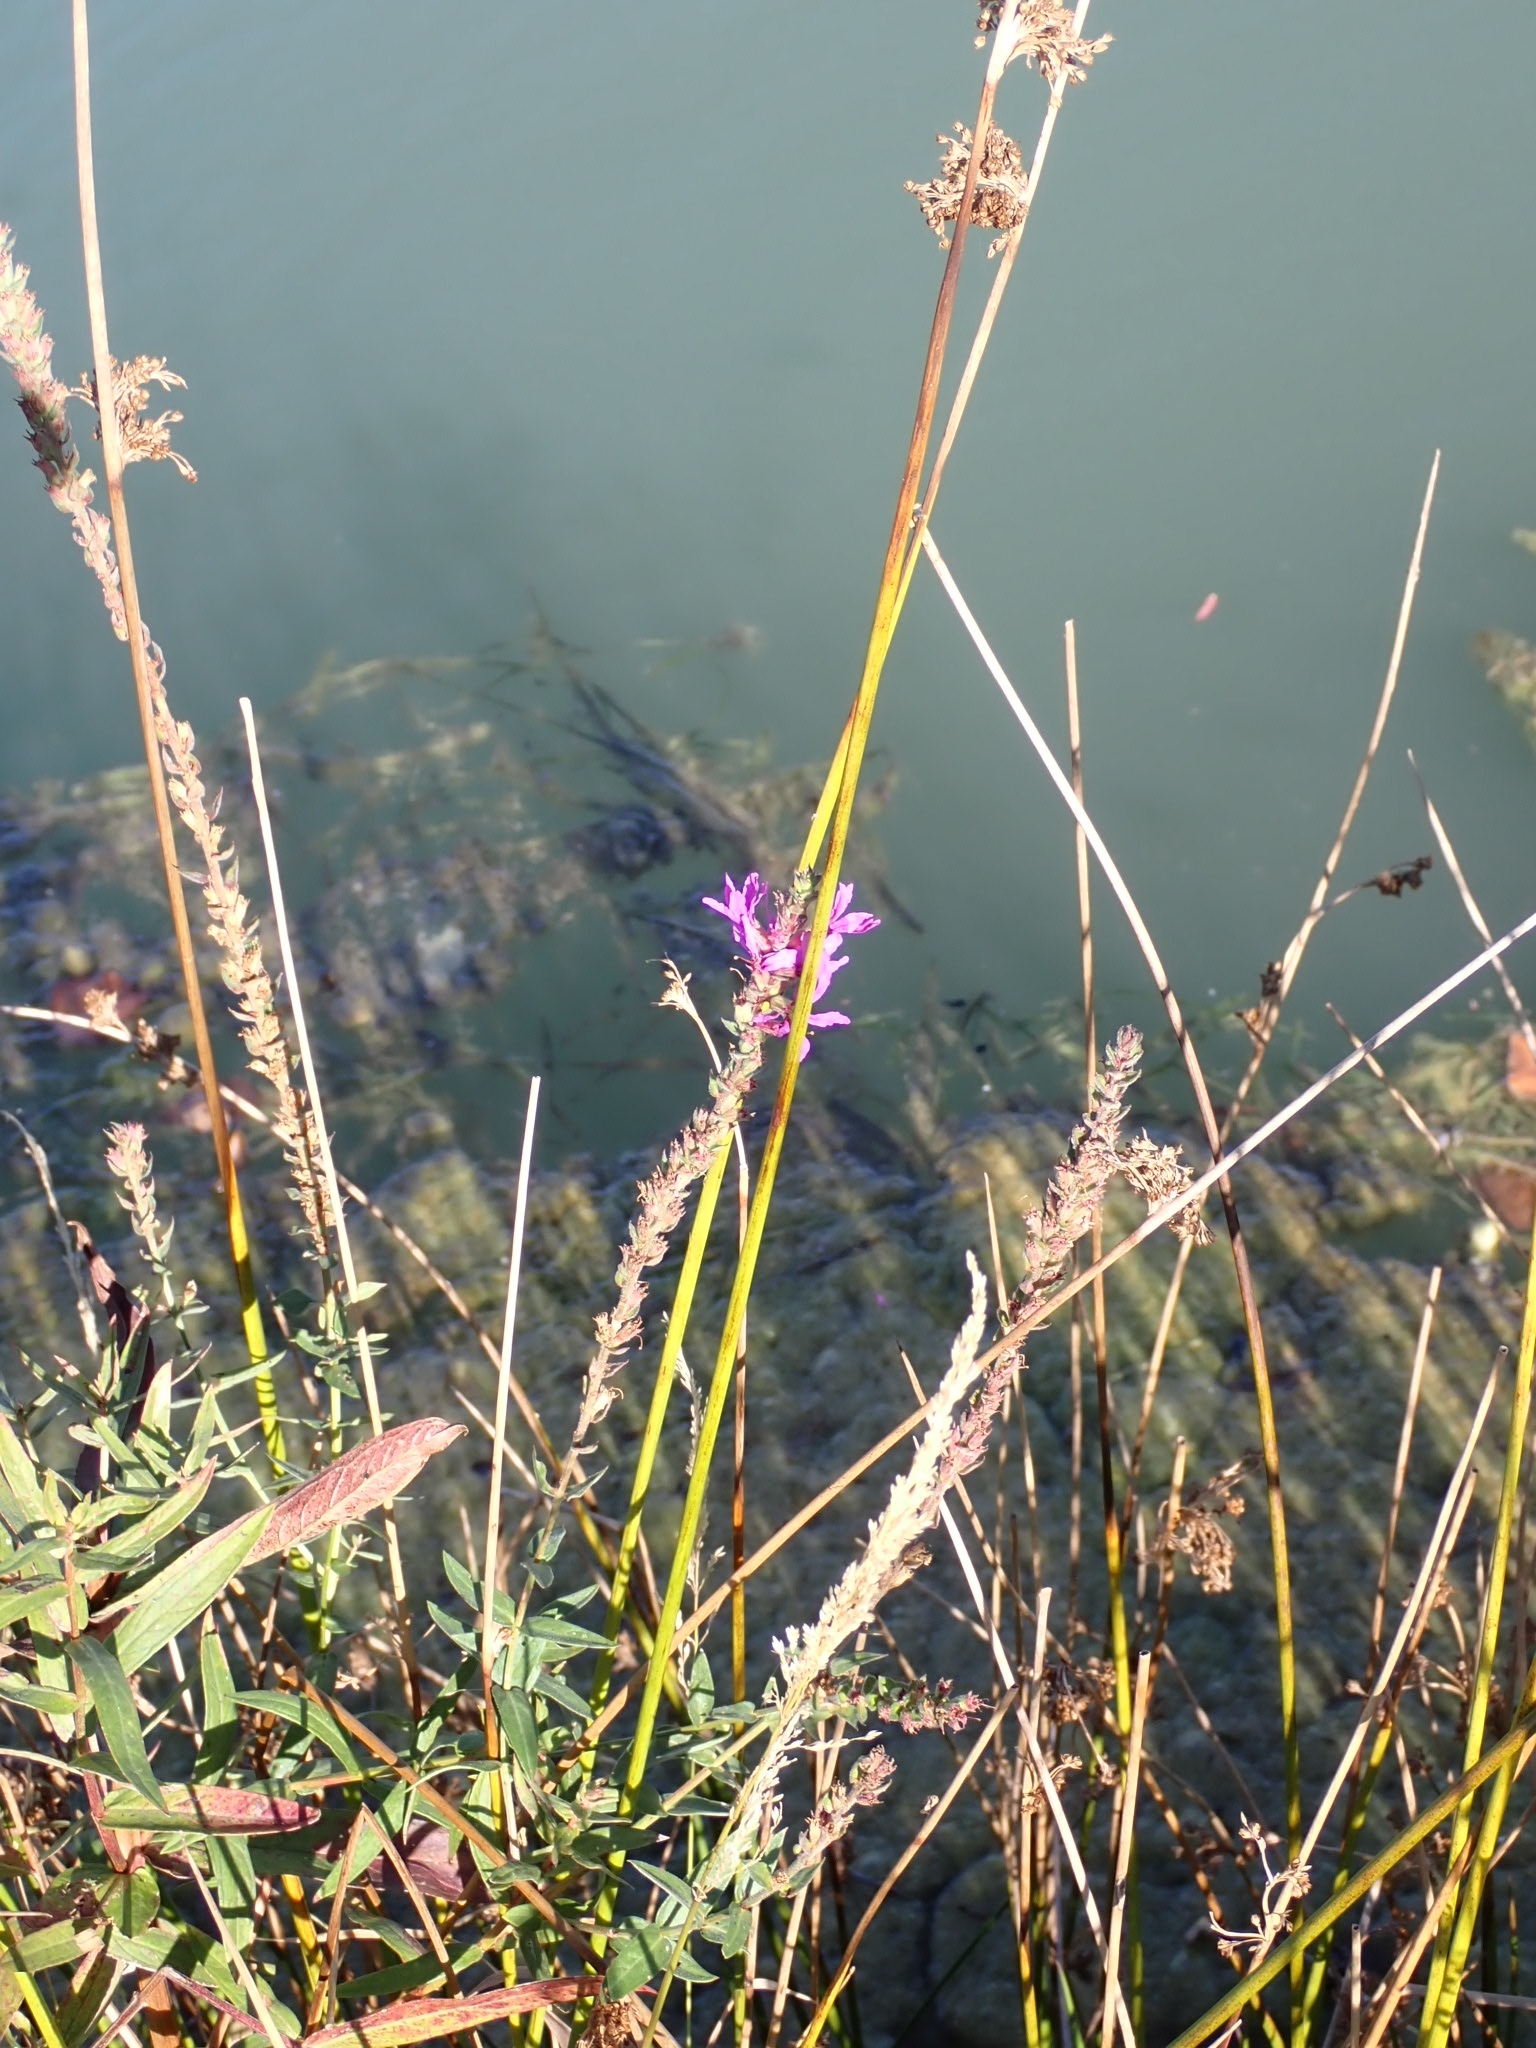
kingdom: Plantae
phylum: Tracheophyta
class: Magnoliopsida
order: Myrtales
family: Lythraceae
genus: Lythrum
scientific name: Lythrum salicaria
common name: Purple loosestrife
